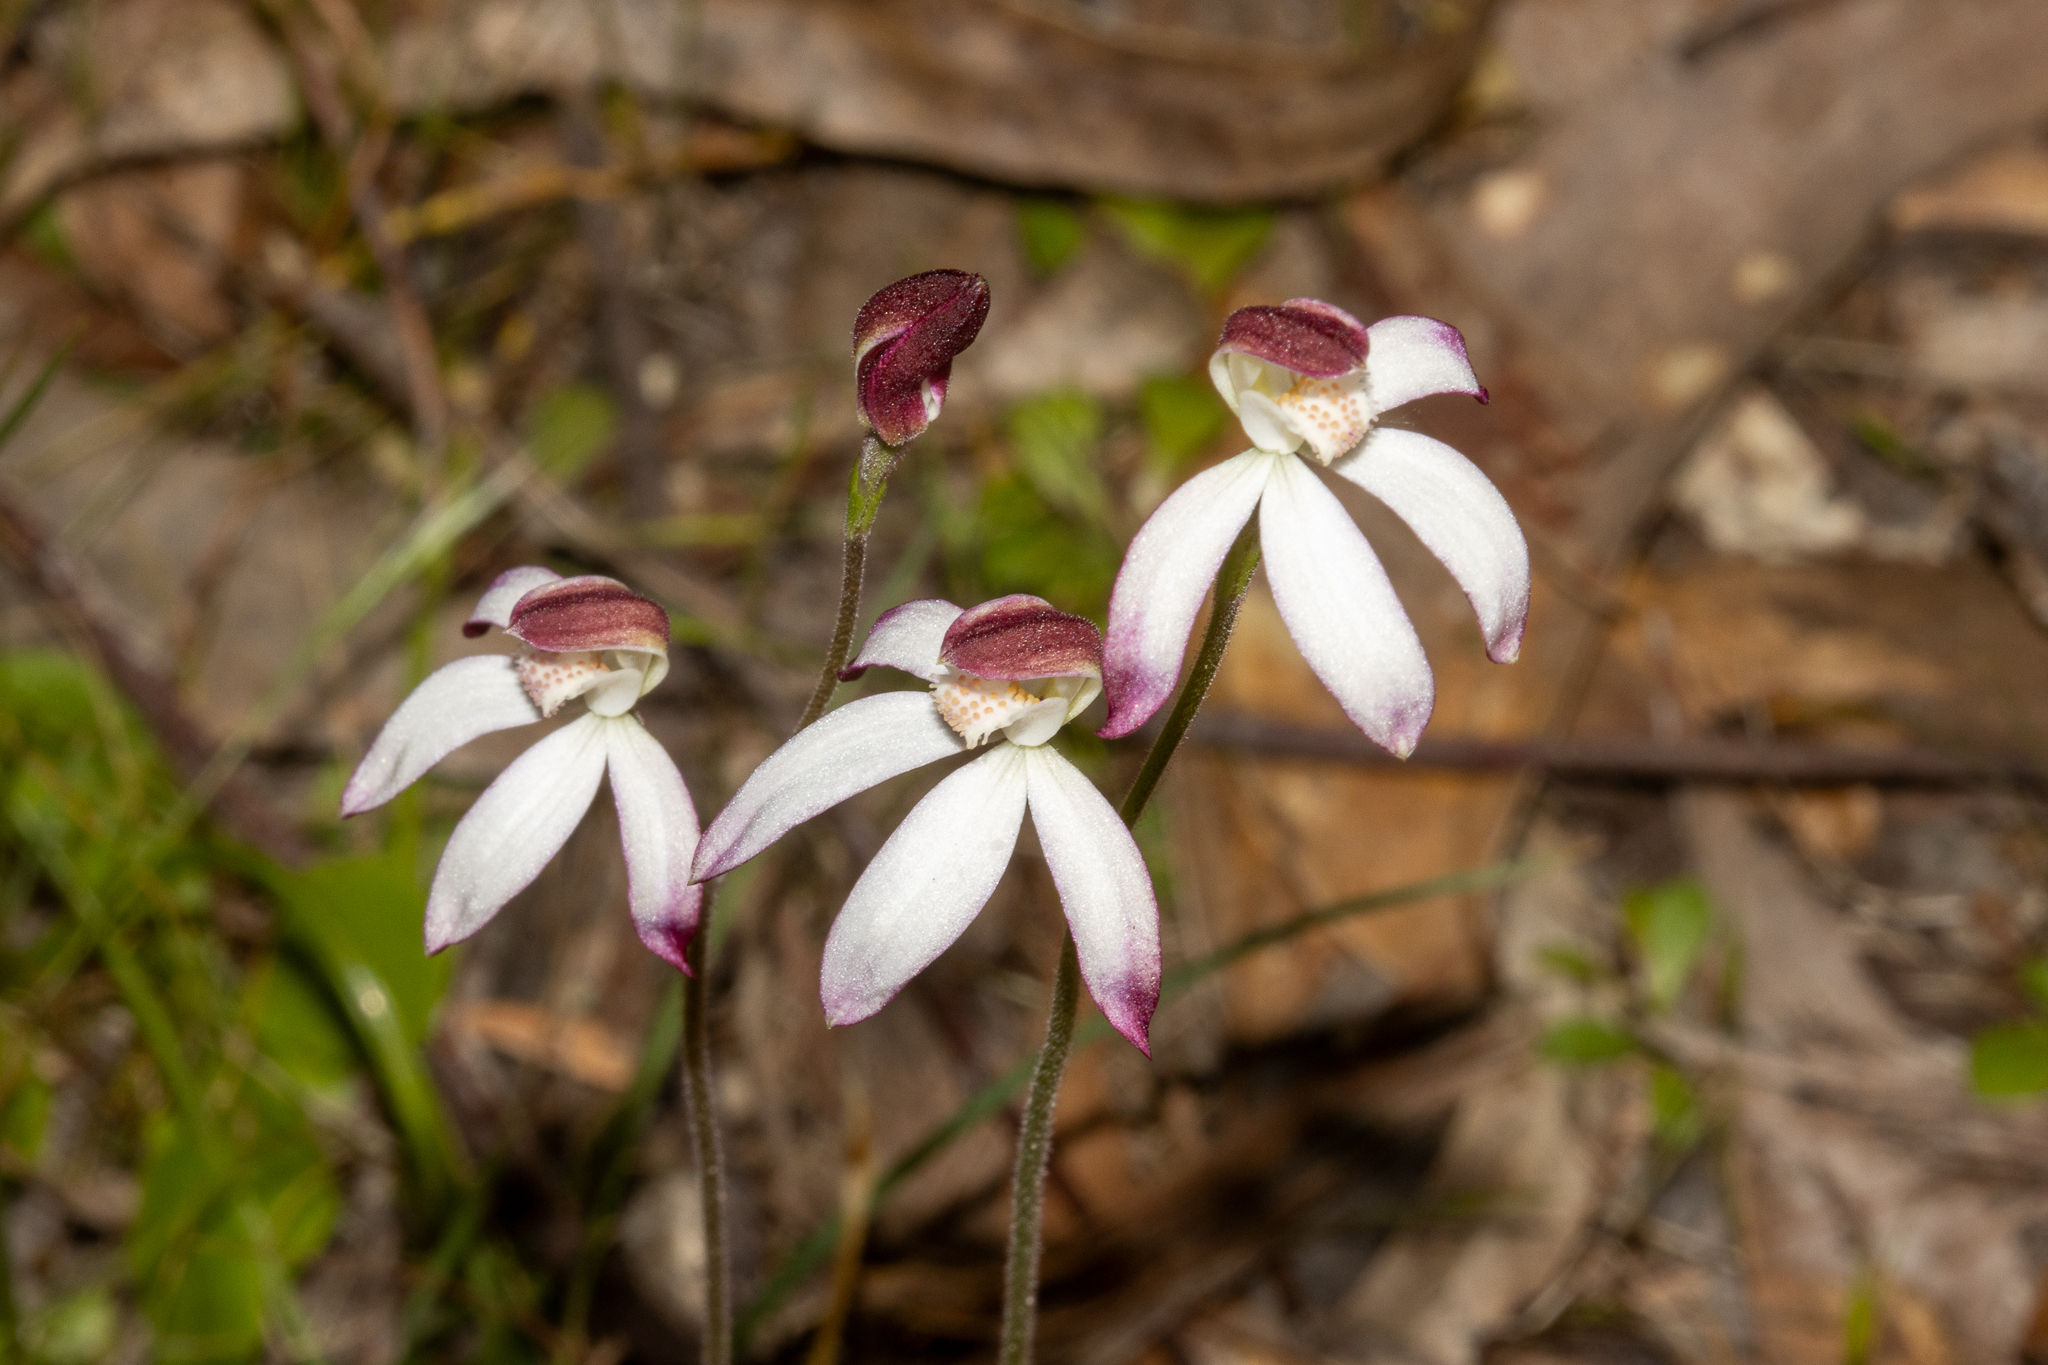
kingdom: Plantae
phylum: Tracheophyta
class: Liliopsida
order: Asparagales
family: Orchidaceae
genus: Caladenia
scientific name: Caladenia moschata
